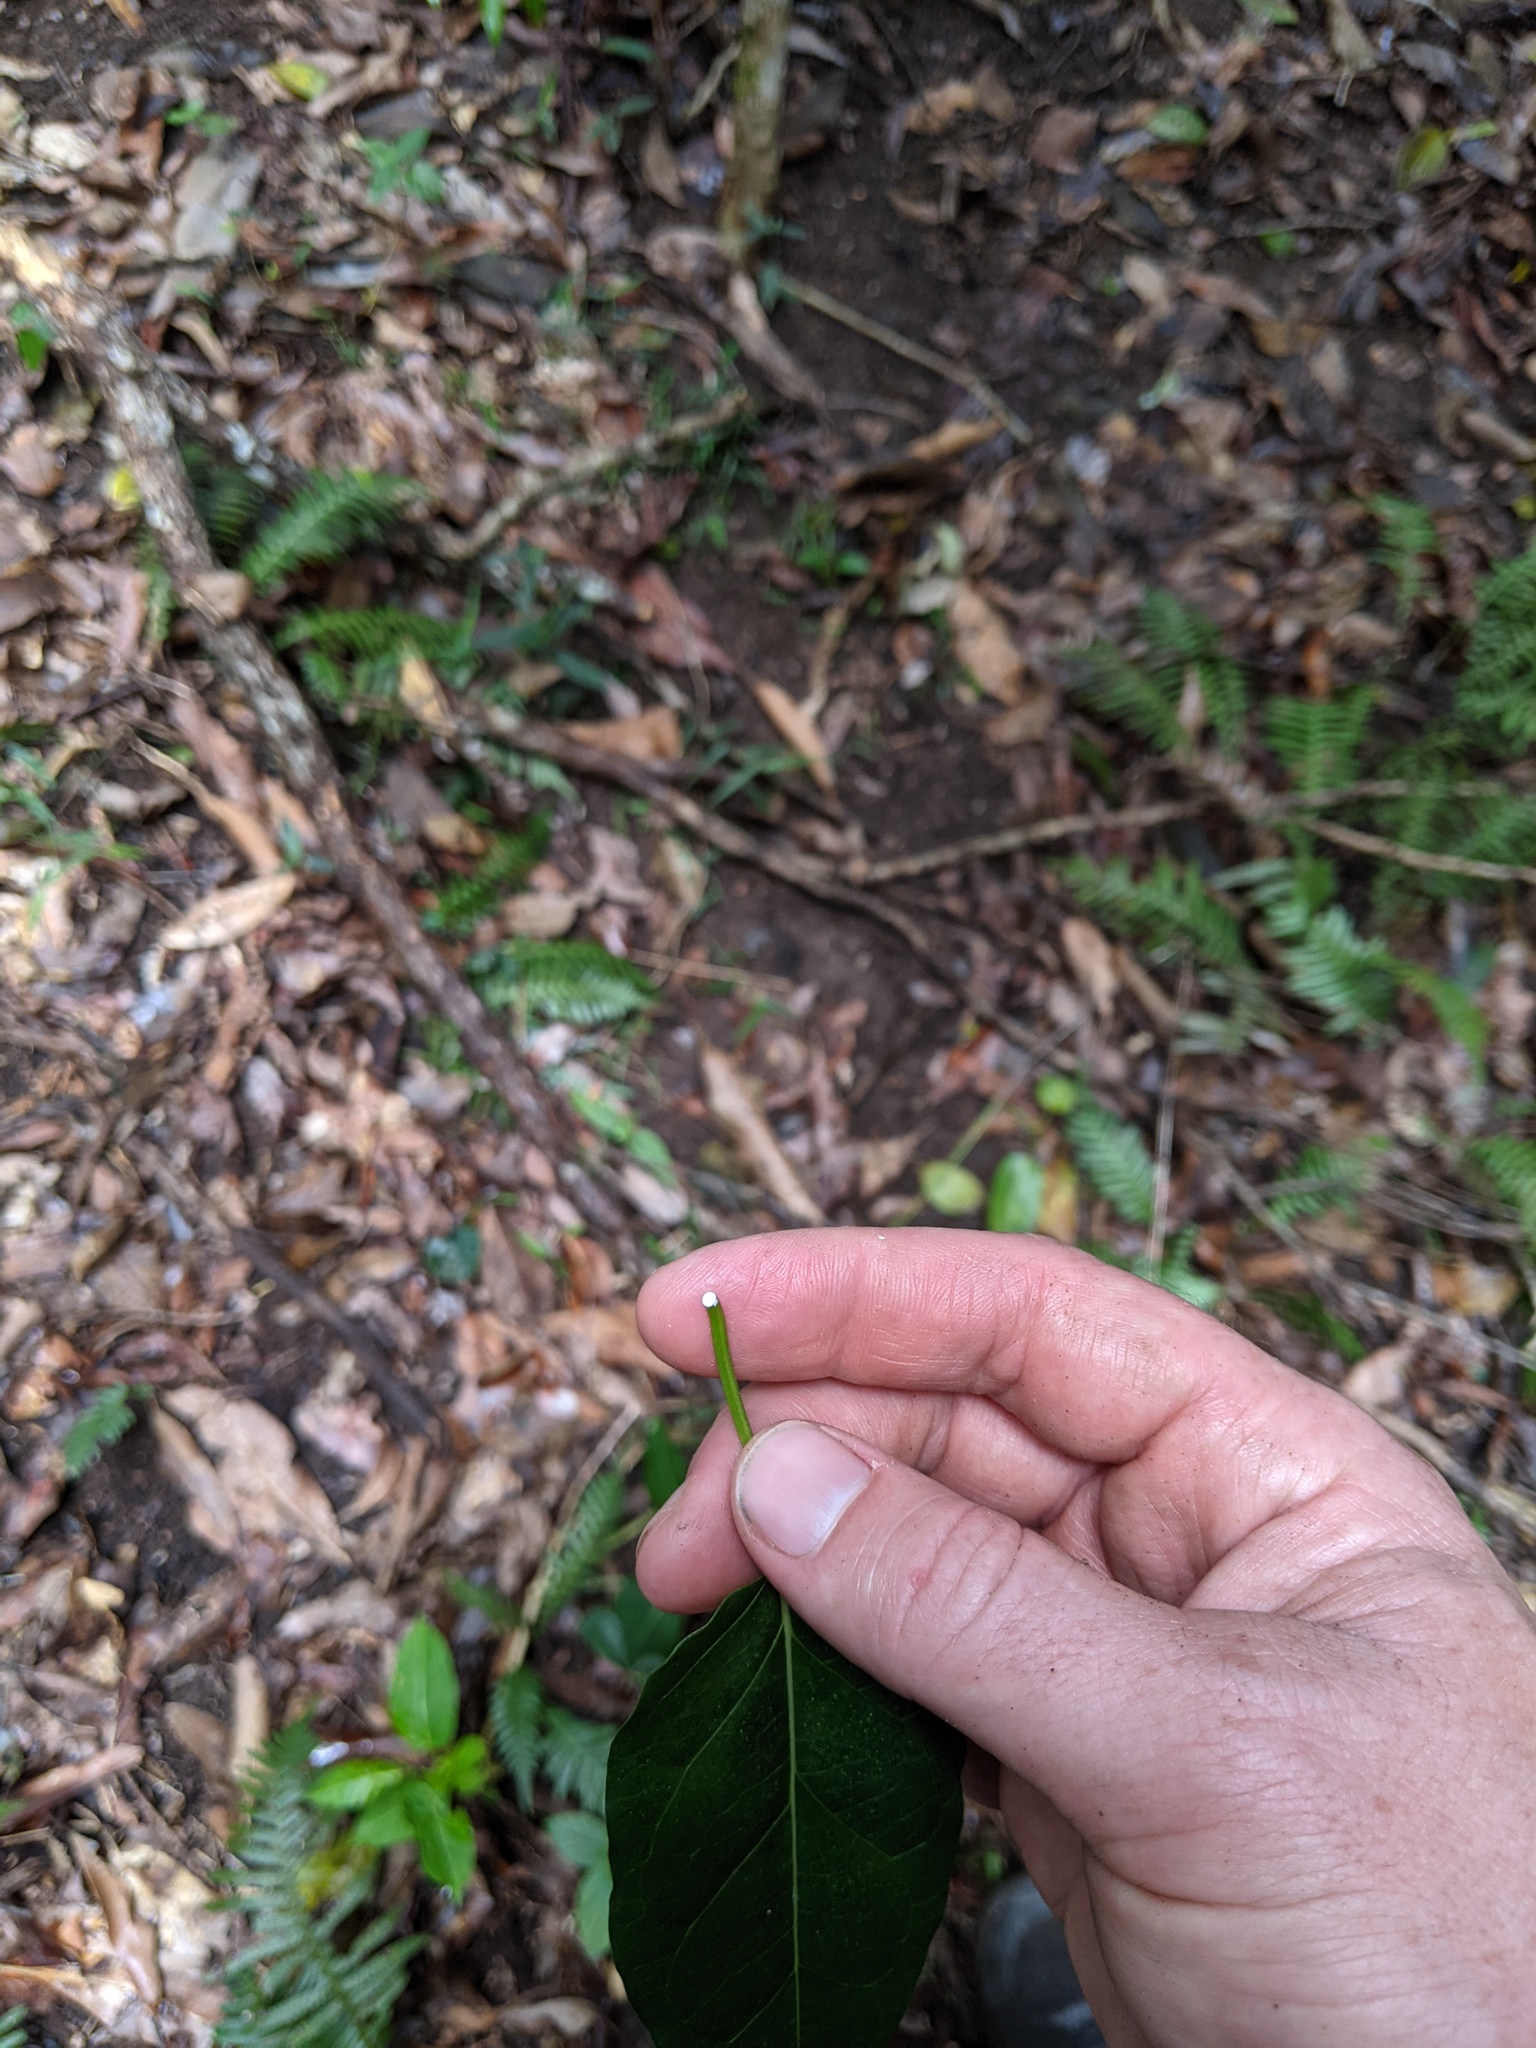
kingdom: Plantae
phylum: Tracheophyta
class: Magnoliopsida
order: Gentianales
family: Apocynaceae
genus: Leichhardtia
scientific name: Leichhardtia rostrata
